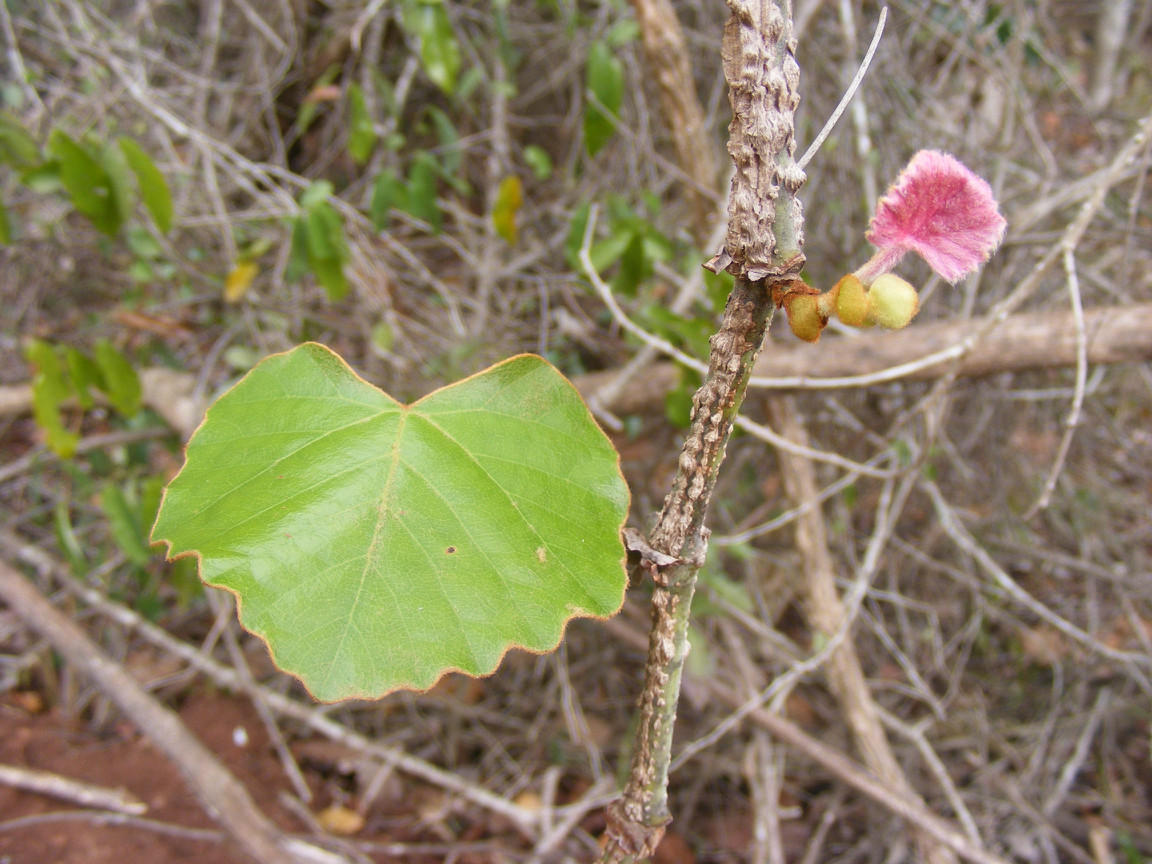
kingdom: Plantae
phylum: Tracheophyta
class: Magnoliopsida
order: Vitales
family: Vitaceae
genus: Rhoicissus
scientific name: Rhoicissus tomentosa
